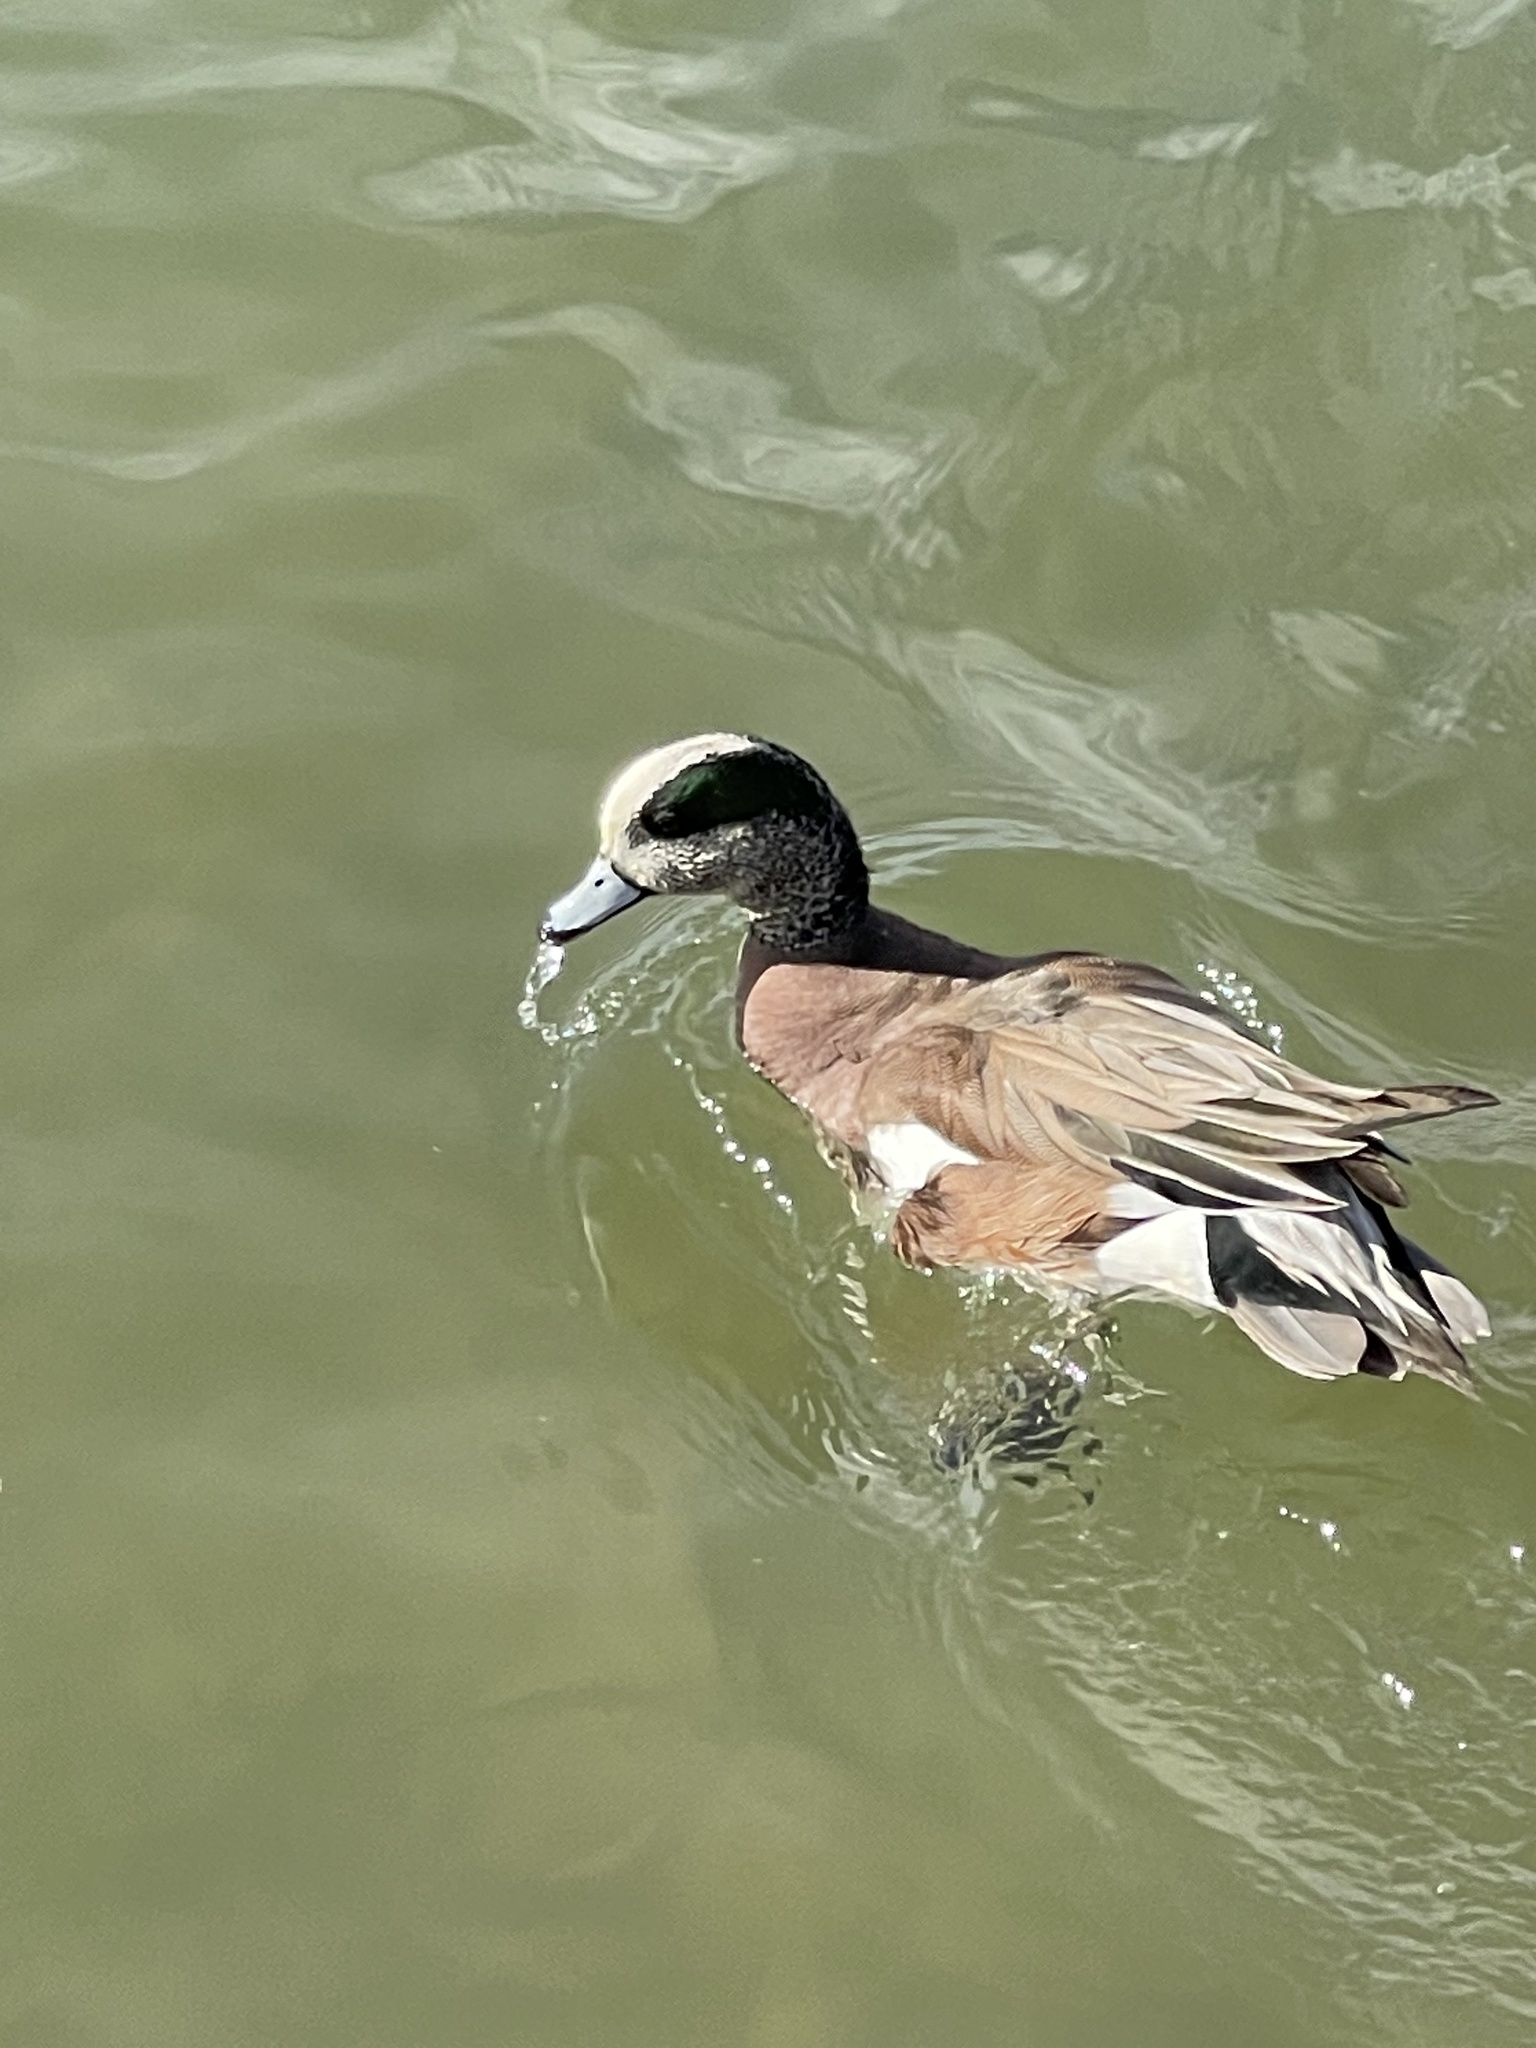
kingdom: Animalia
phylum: Chordata
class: Aves
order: Anseriformes
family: Anatidae
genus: Mareca
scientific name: Mareca americana
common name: American wigeon
